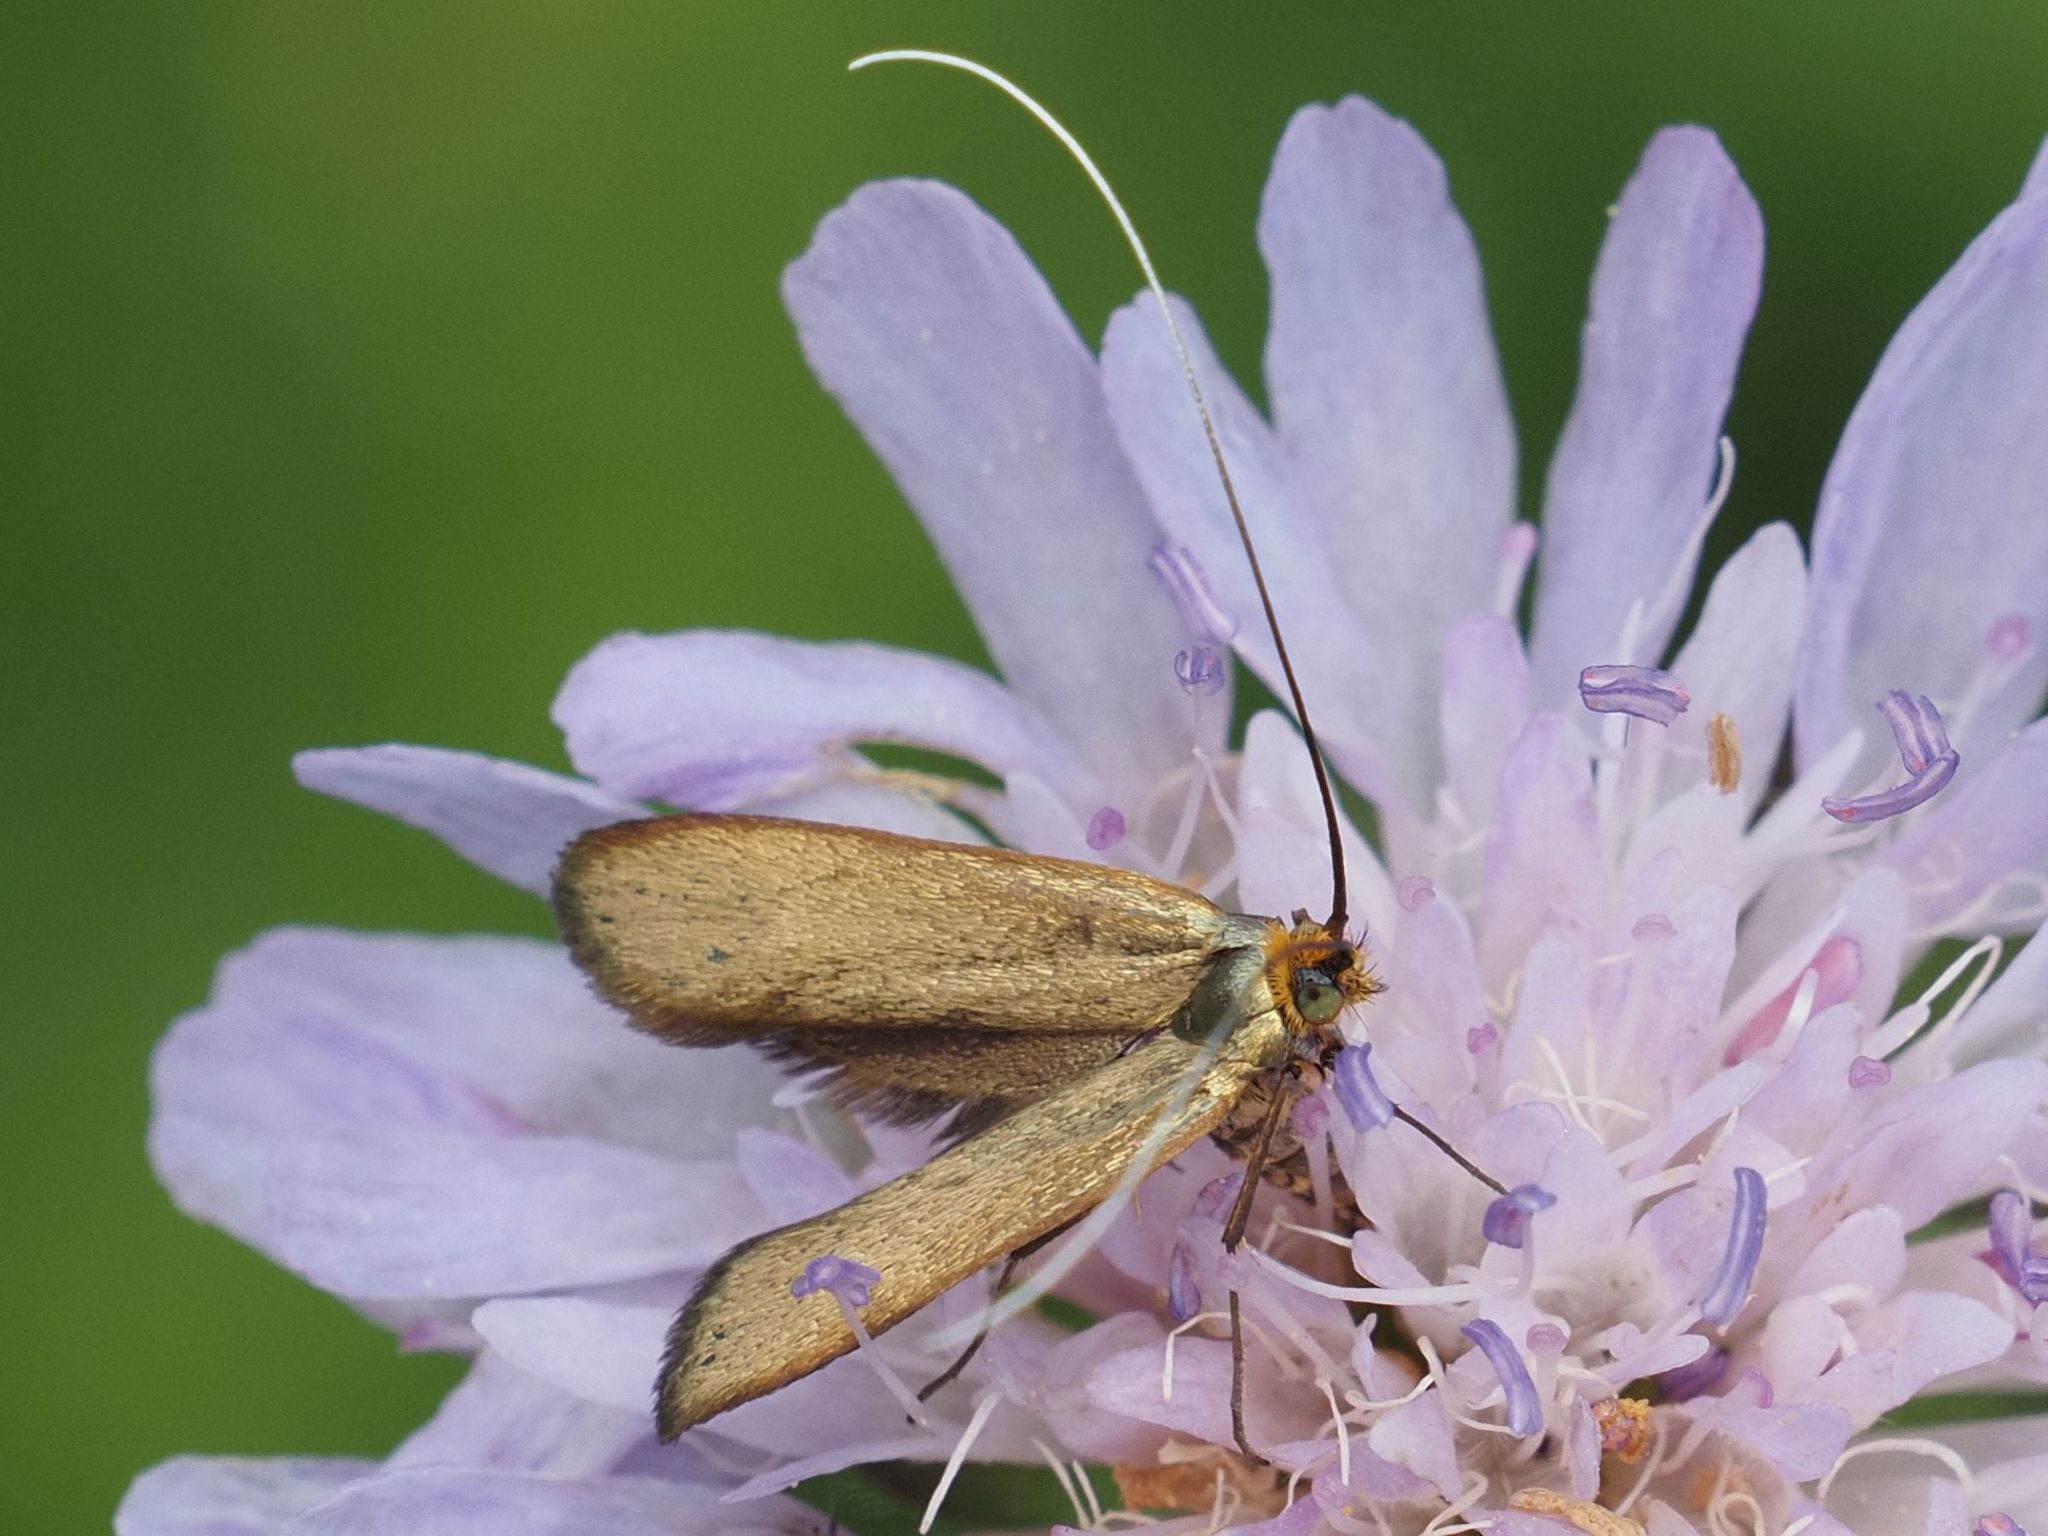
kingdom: Animalia
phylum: Arthropoda
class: Insecta
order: Lepidoptera
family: Adelidae
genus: Nemophora
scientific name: Nemophora metallica
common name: Brassy long-horn
